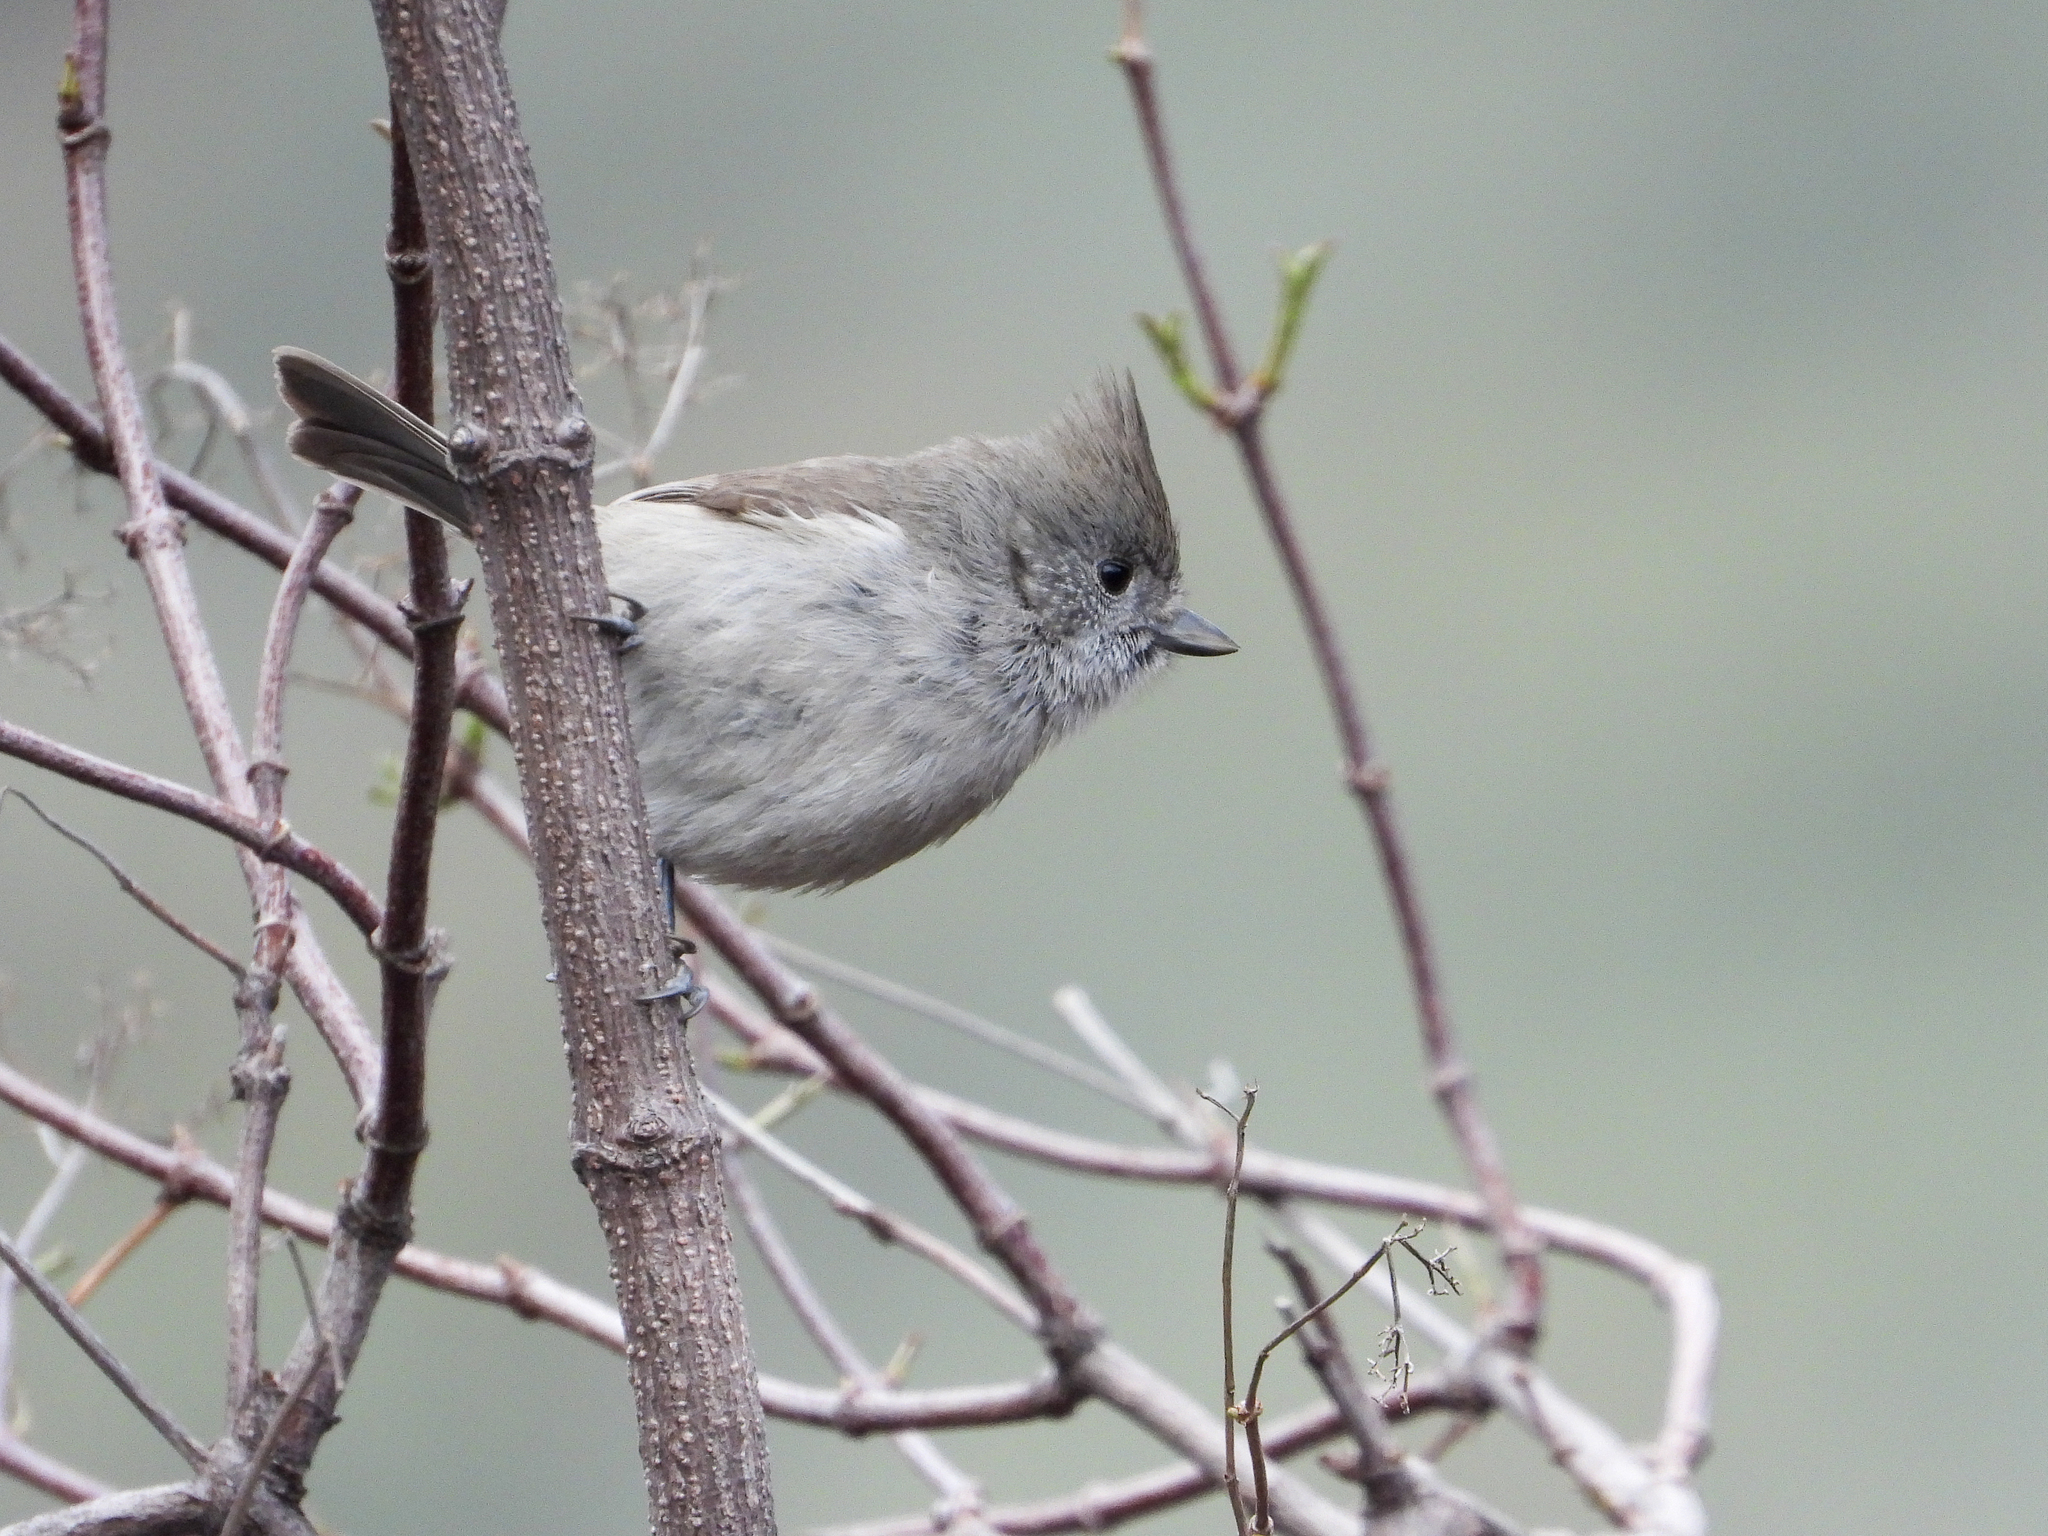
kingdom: Animalia
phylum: Chordata
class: Aves
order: Passeriformes
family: Paridae
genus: Baeolophus
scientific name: Baeolophus inornatus
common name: Oak titmouse
